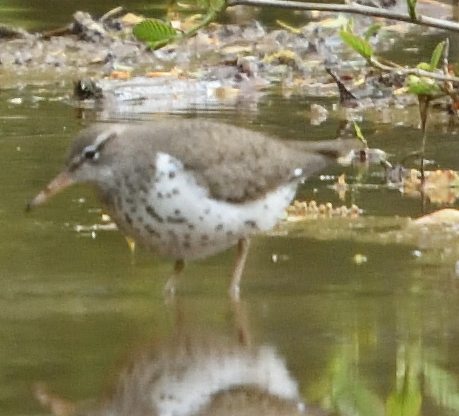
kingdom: Animalia
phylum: Chordata
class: Aves
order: Charadriiformes
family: Scolopacidae
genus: Actitis
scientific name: Actitis macularius
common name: Spotted sandpiper
